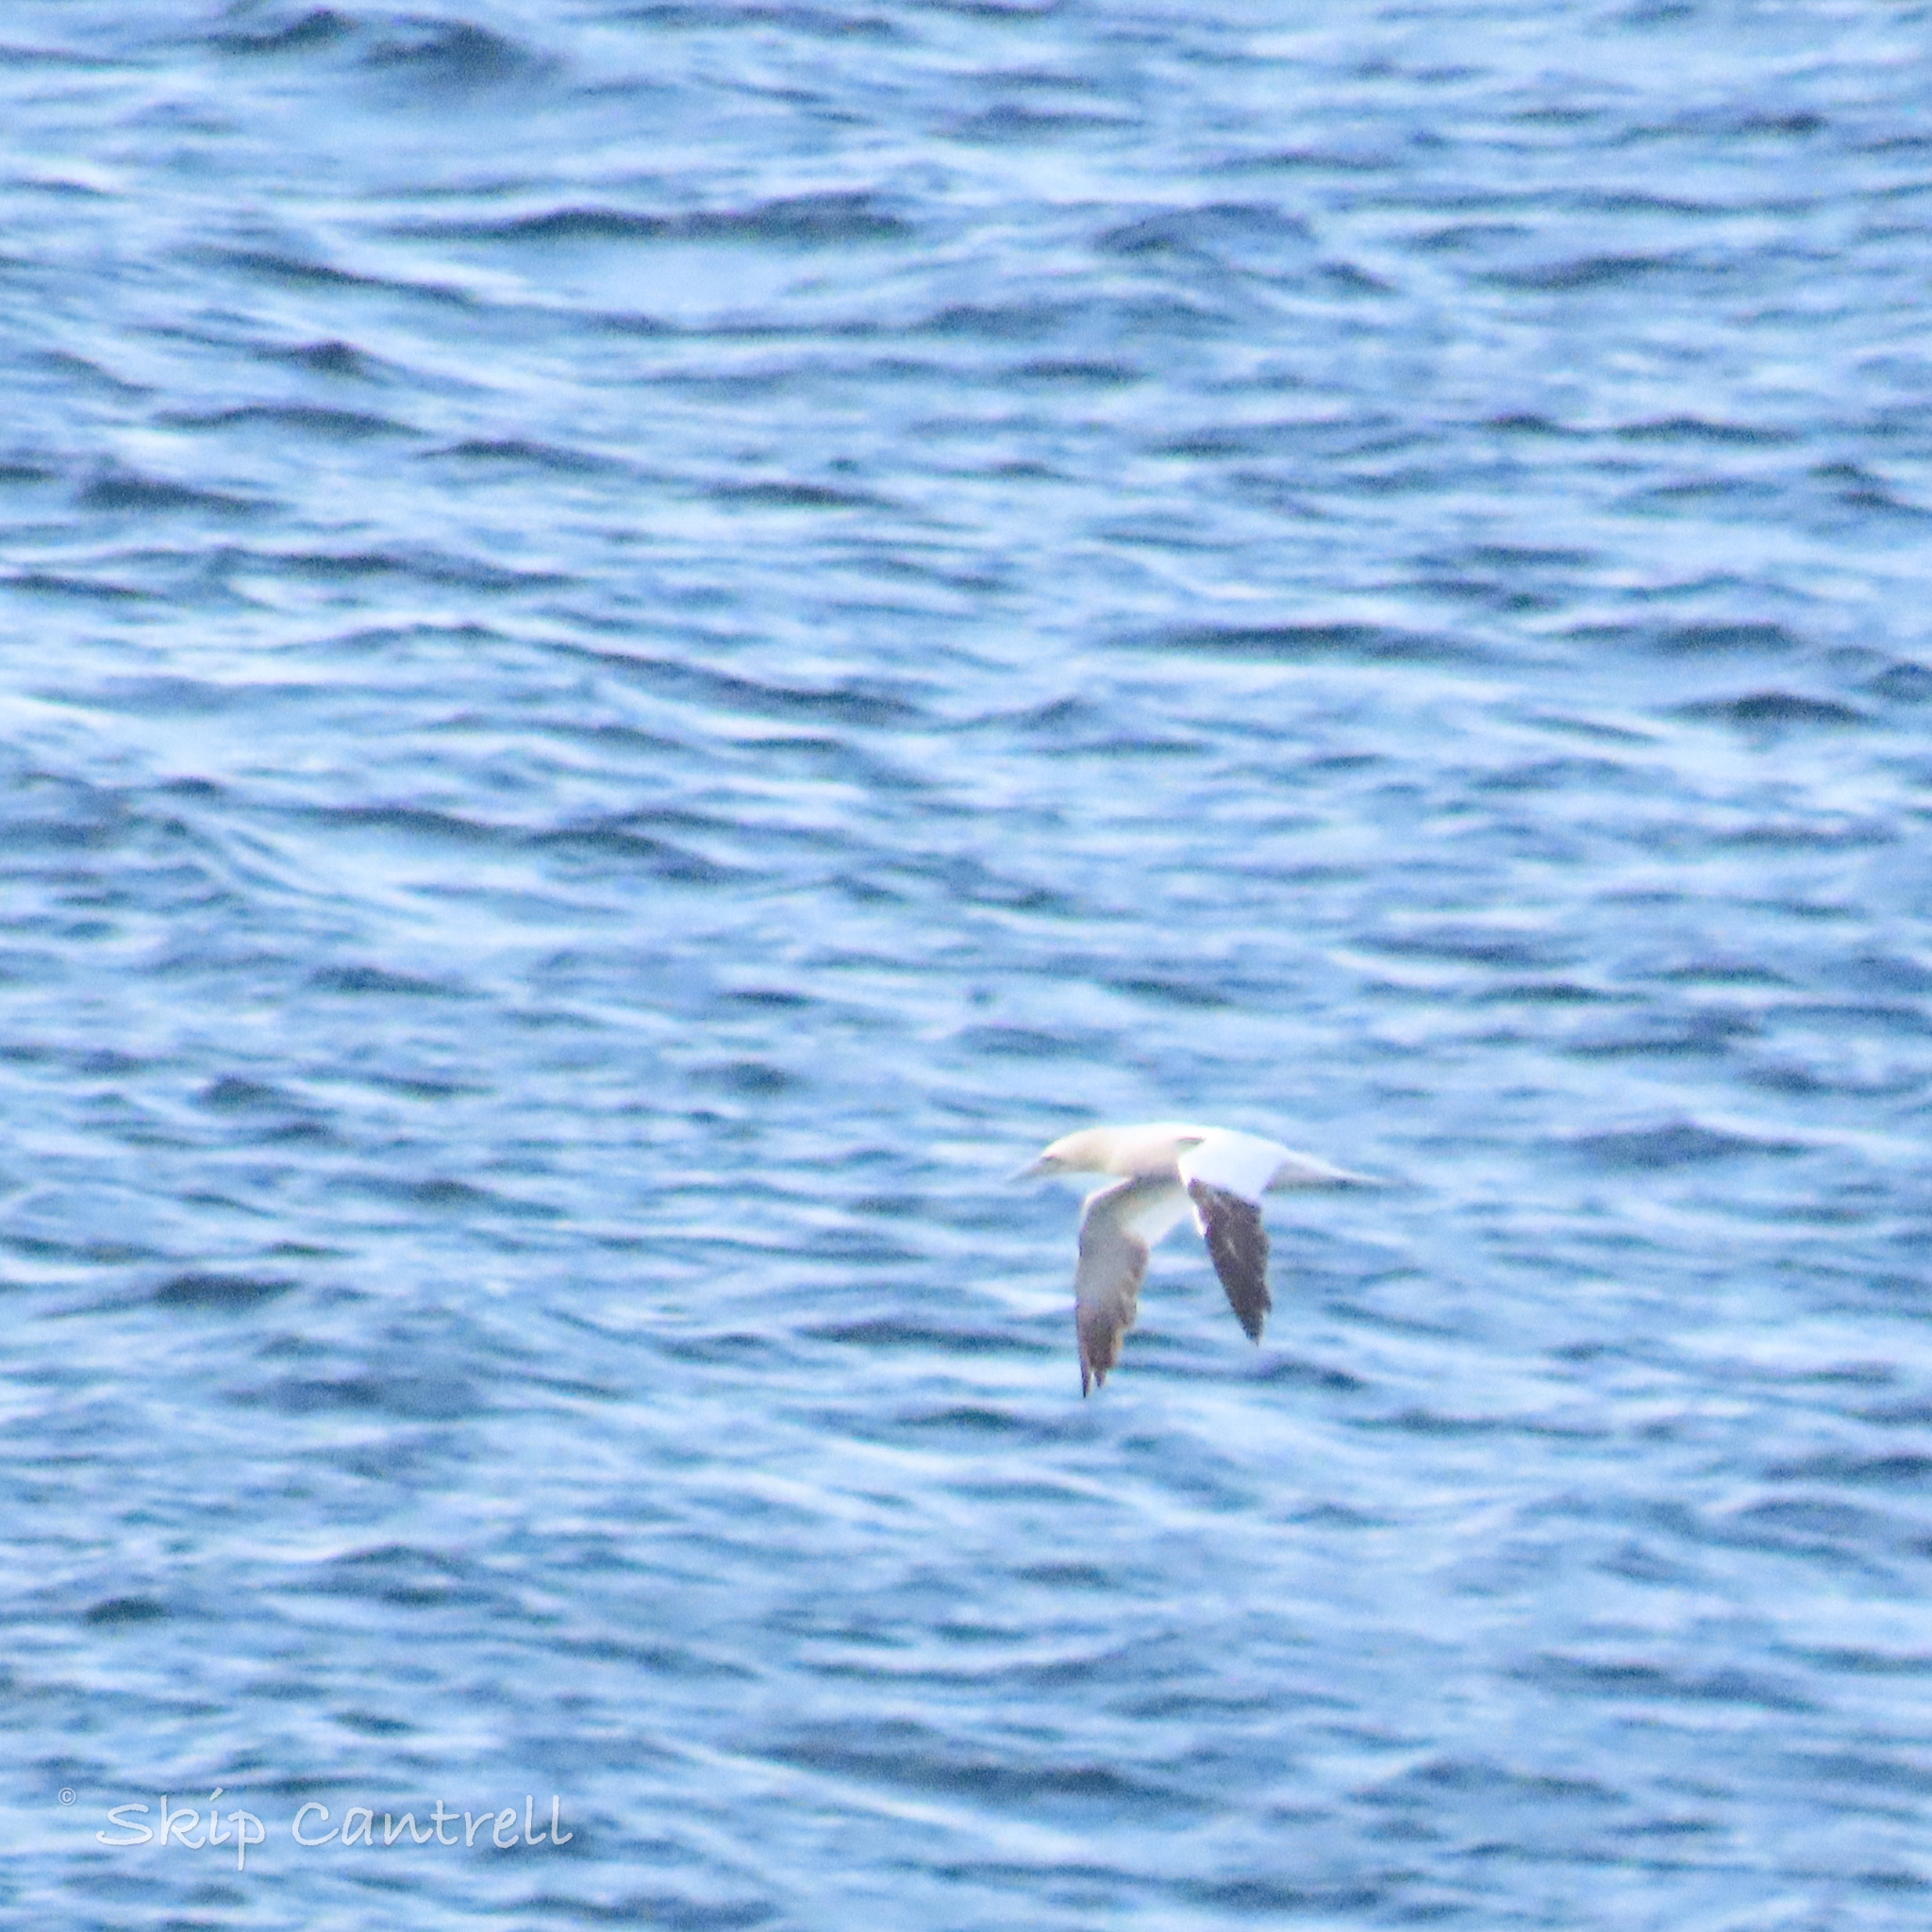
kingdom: Animalia
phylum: Chordata
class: Aves
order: Suliformes
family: Sulidae
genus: Morus
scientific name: Morus bassanus
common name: Northern gannet
